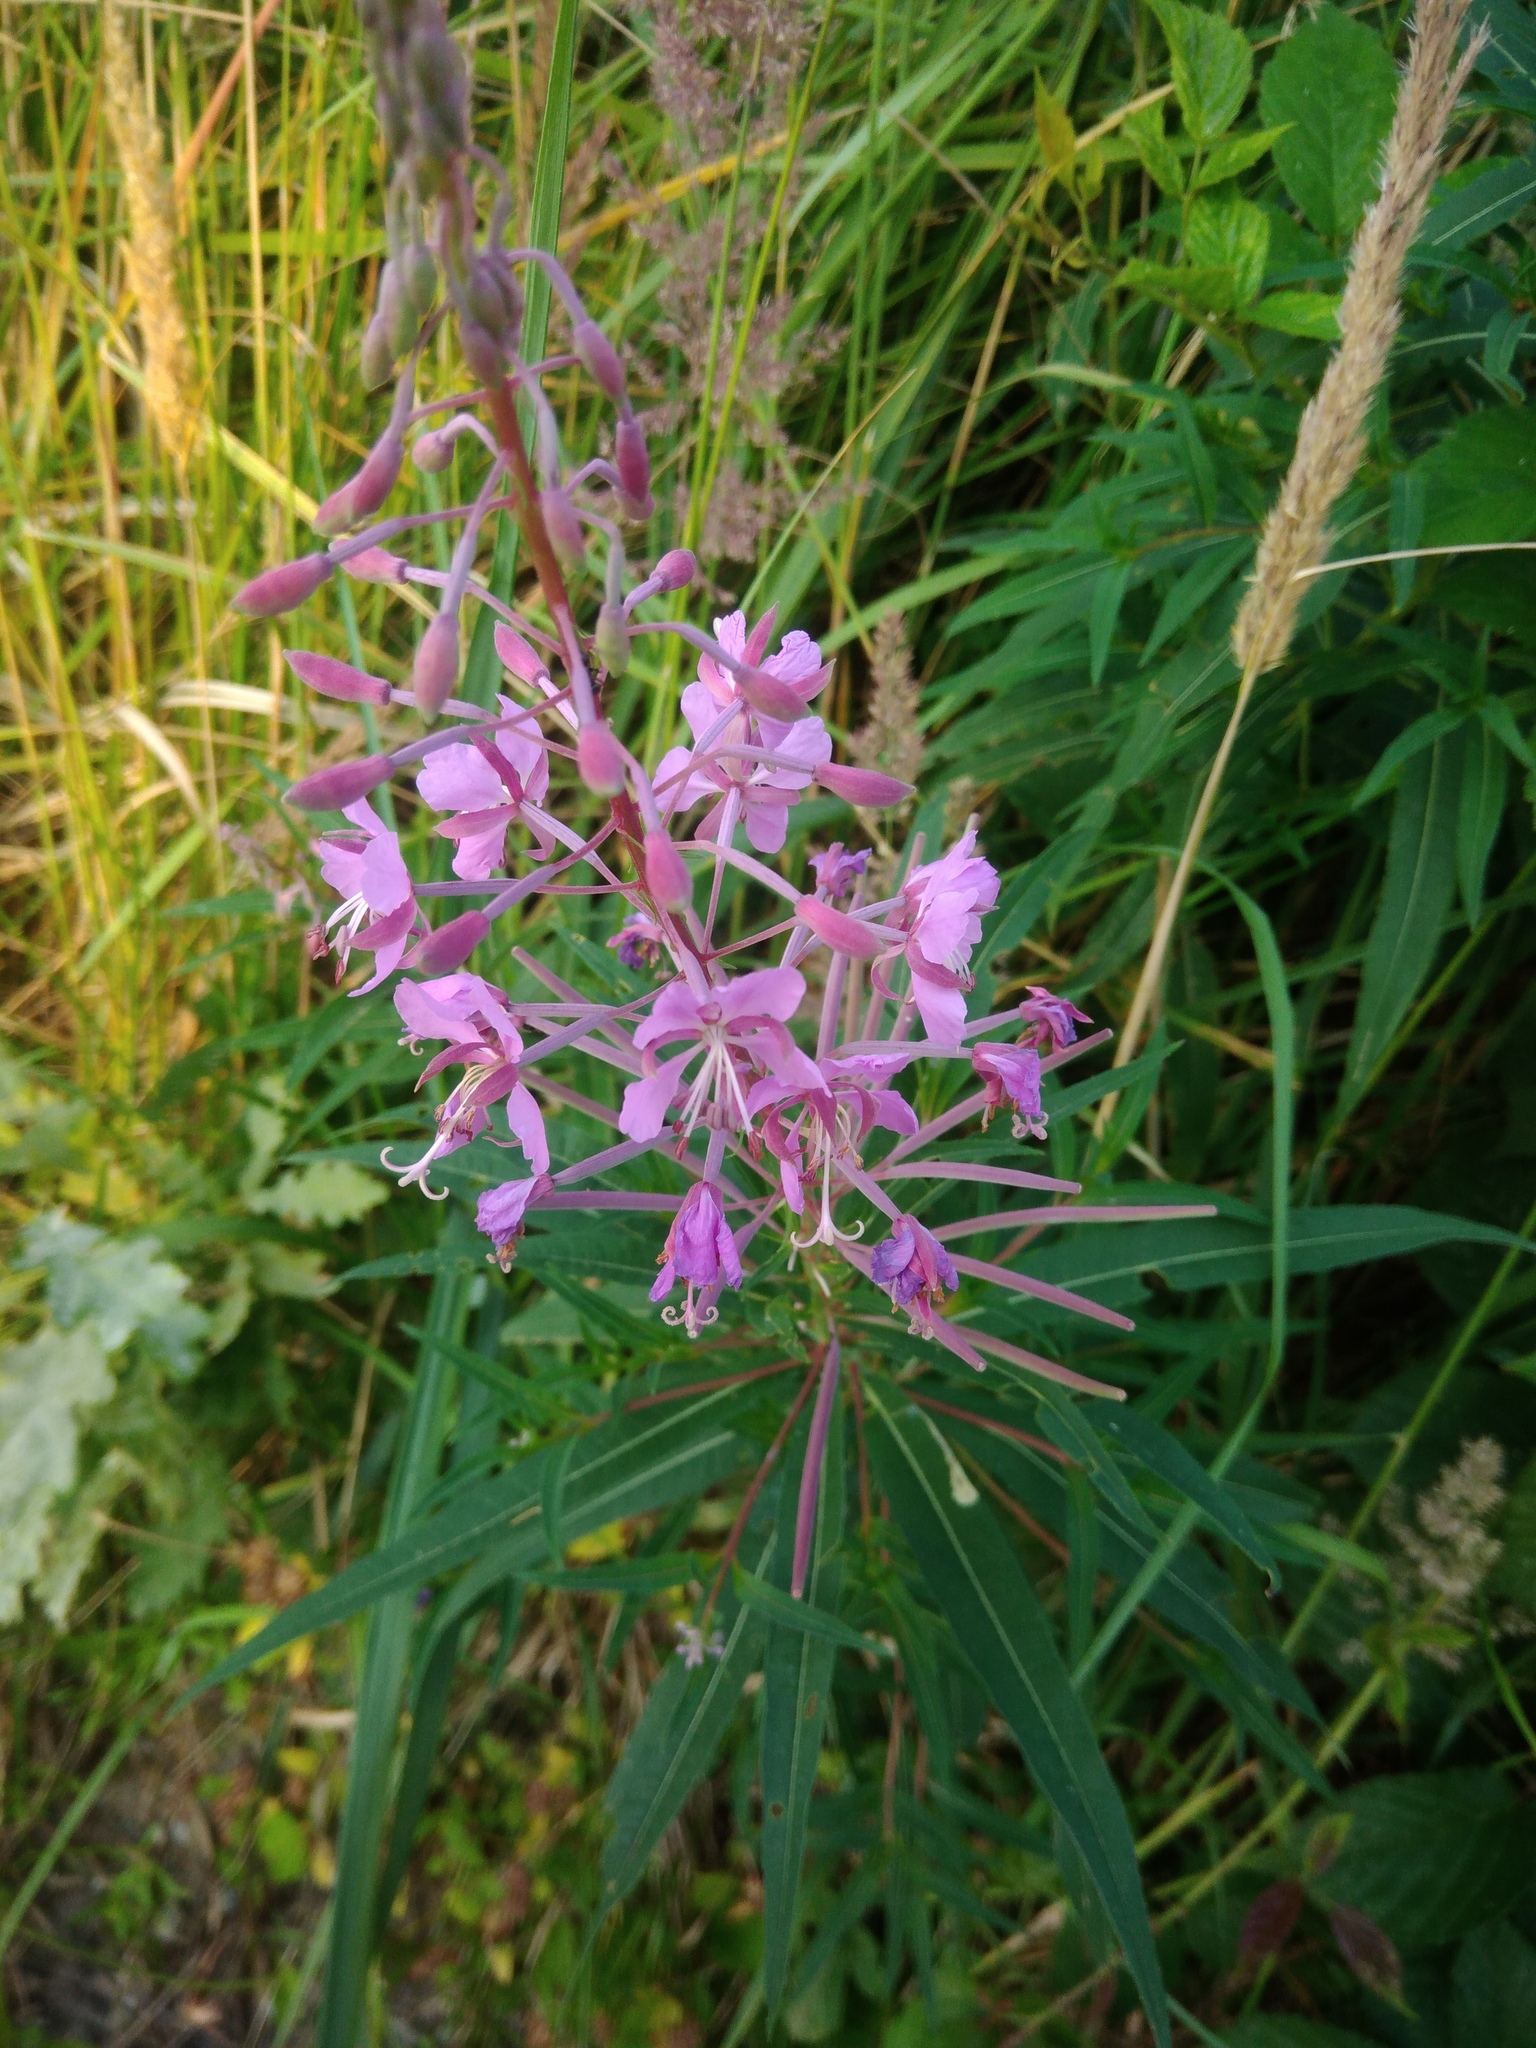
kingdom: Plantae
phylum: Tracheophyta
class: Magnoliopsida
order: Myrtales
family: Onagraceae
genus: Chamaenerion
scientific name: Chamaenerion angustifolium
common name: Fireweed
